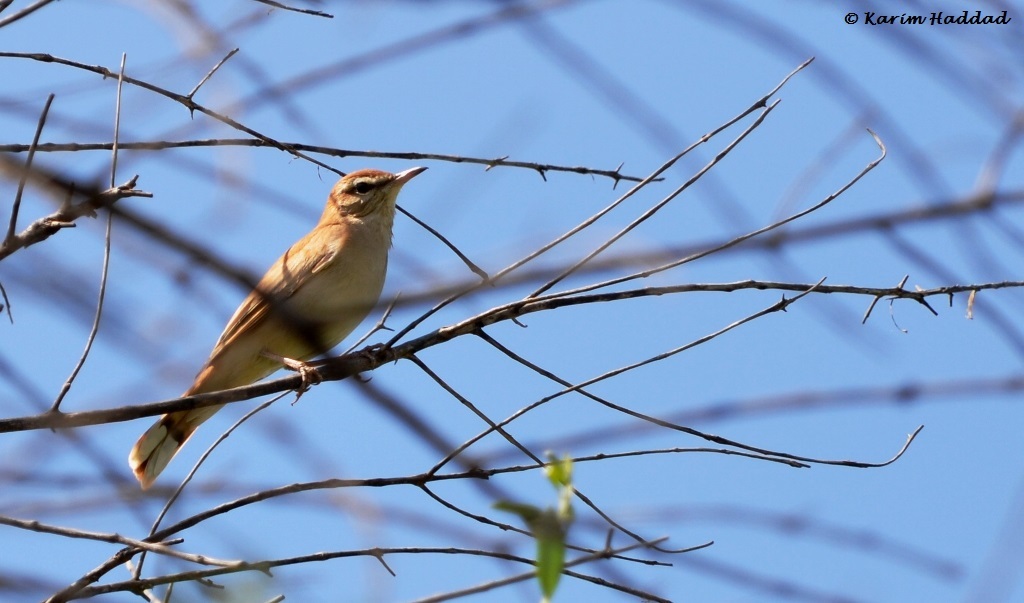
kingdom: Animalia
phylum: Chordata
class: Aves
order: Passeriformes
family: Muscicapidae
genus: Erythropygia
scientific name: Erythropygia galactotes
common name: Rufous-tailed scrub robin
